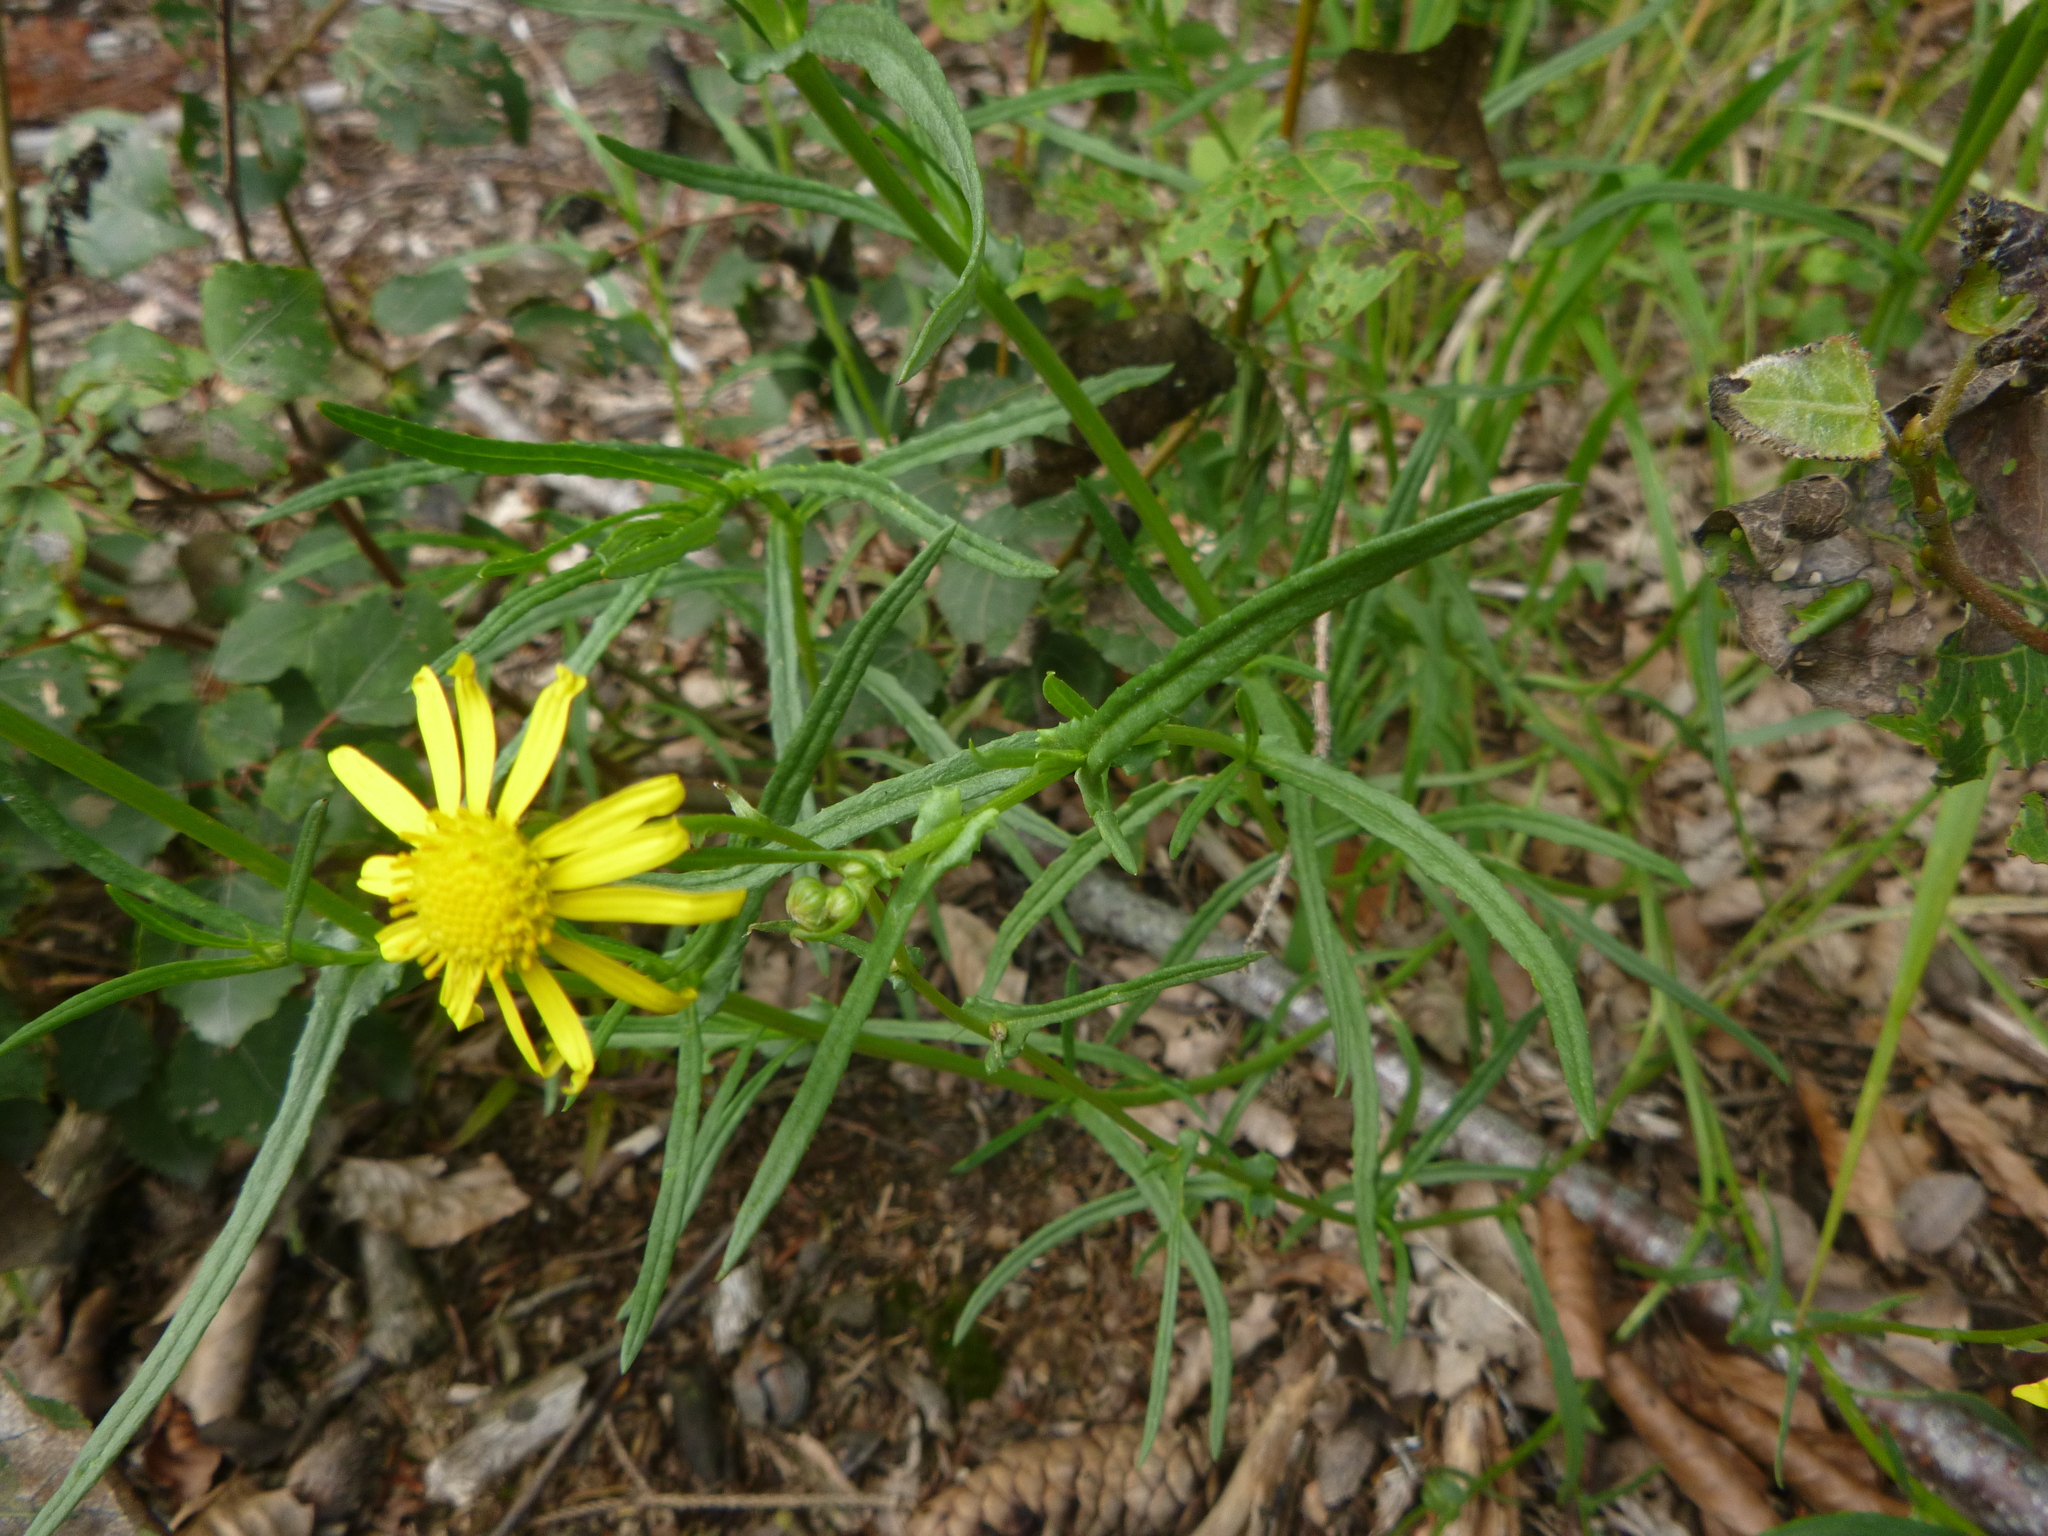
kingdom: Plantae
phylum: Tracheophyta
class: Magnoliopsida
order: Asterales
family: Asteraceae
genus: Senecio
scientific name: Senecio inaequidens
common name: Narrow-leaved ragwort
